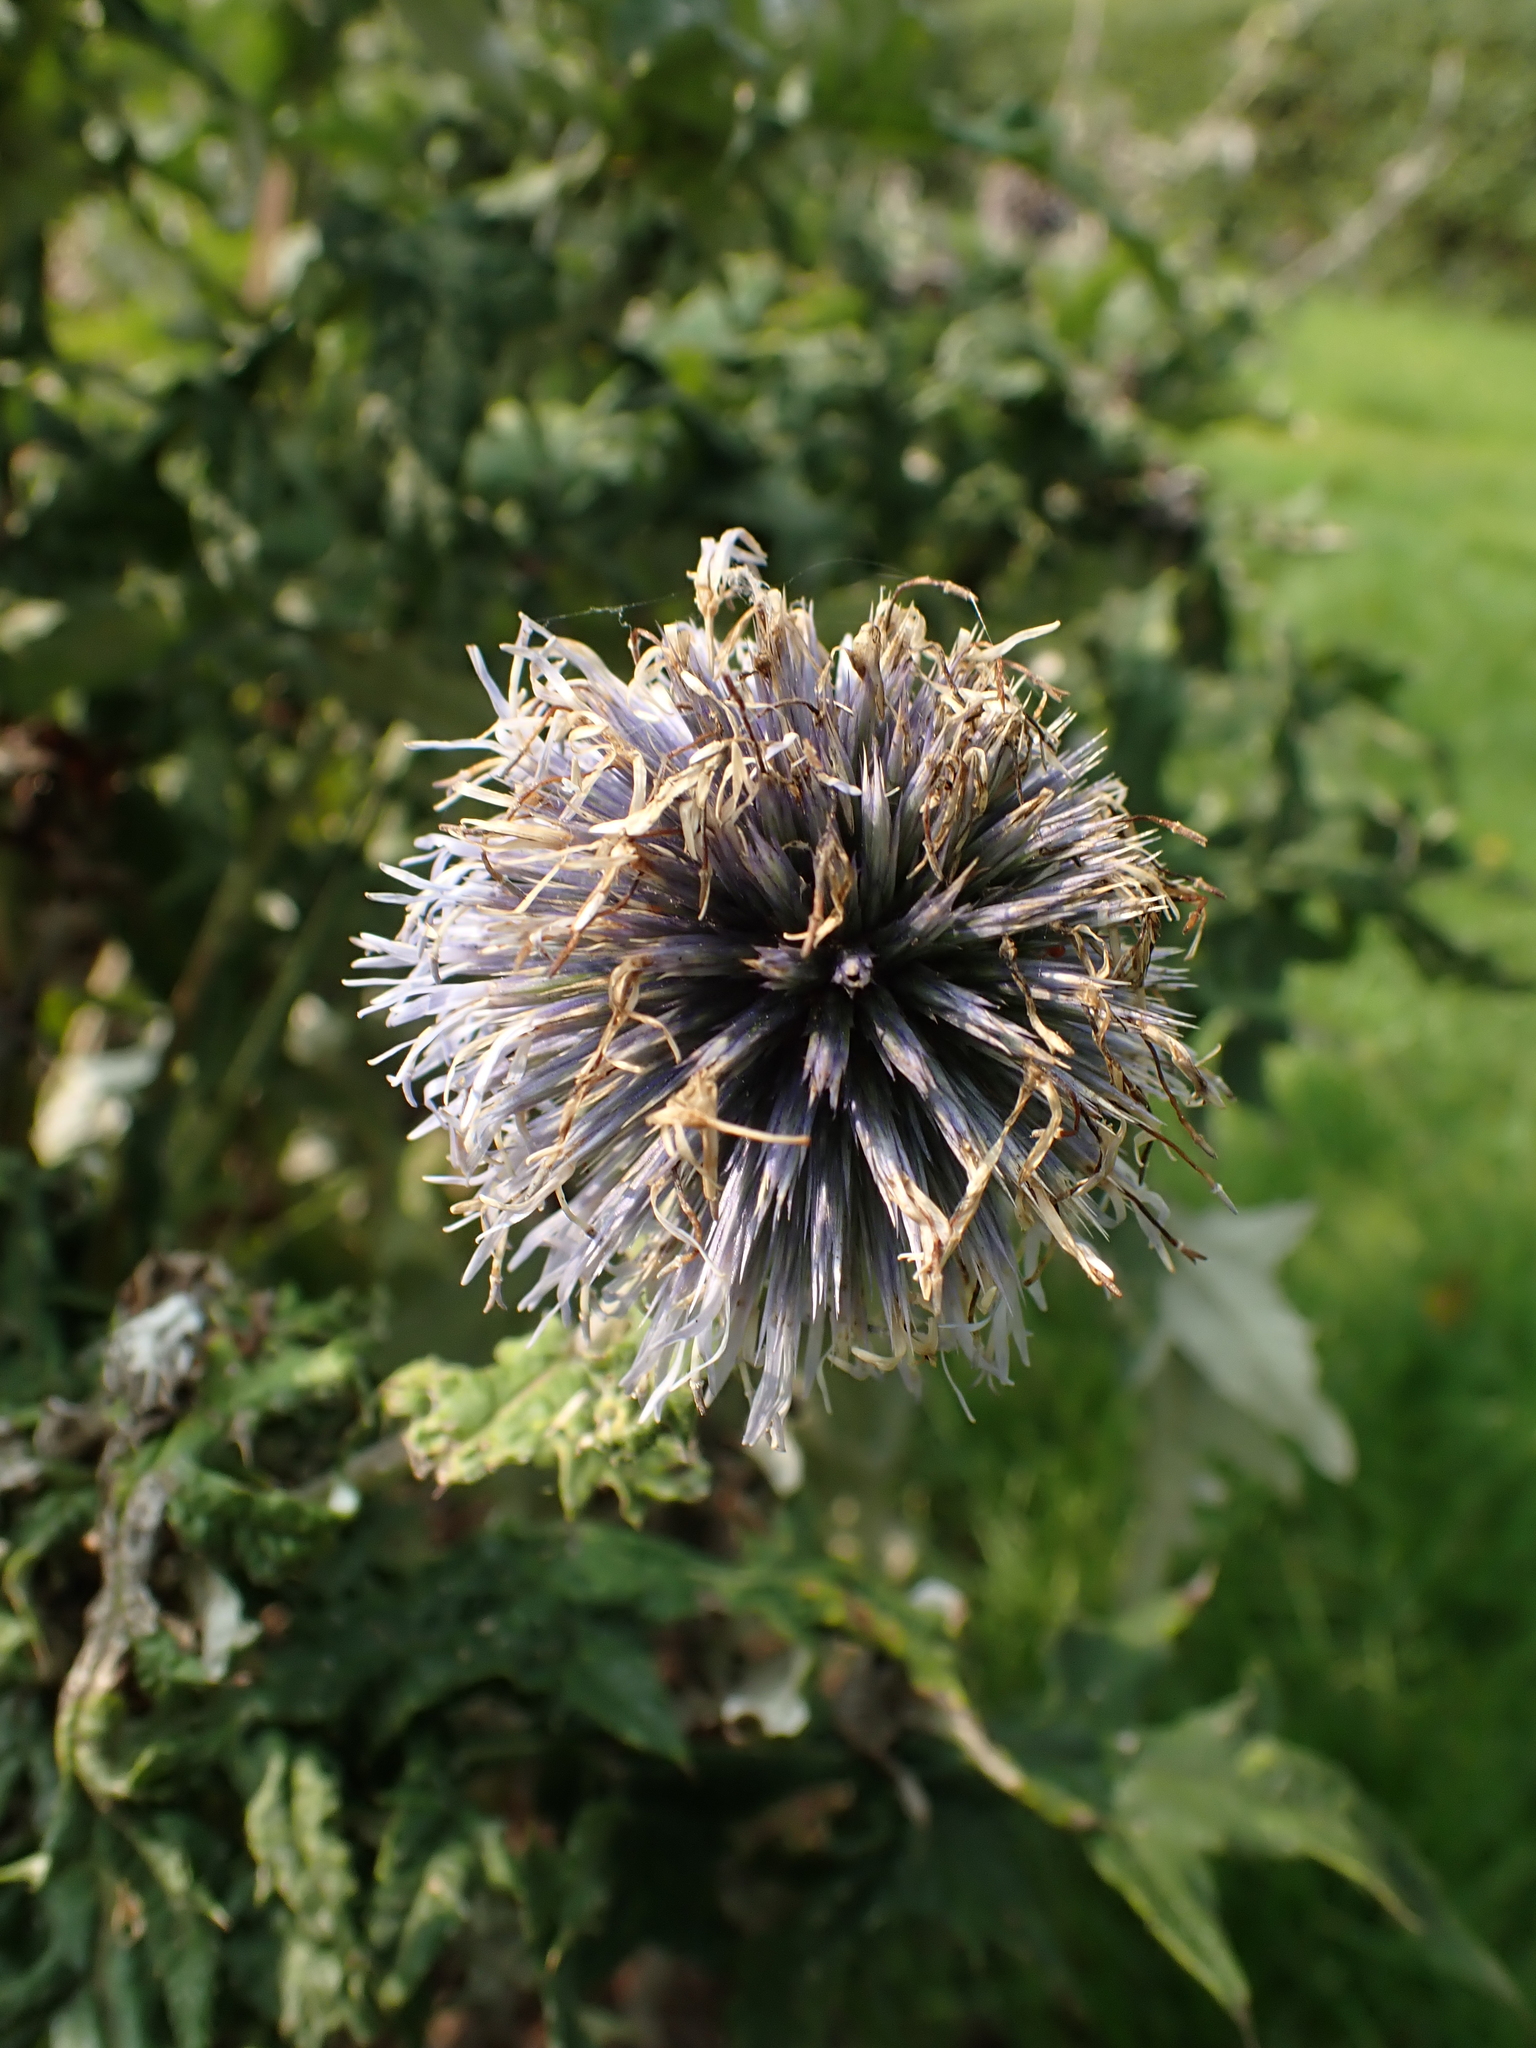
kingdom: Plantae
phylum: Tracheophyta
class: Magnoliopsida
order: Asterales
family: Asteraceae
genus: Echinops
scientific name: Echinops bannaticus
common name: Blue globe-thistle
